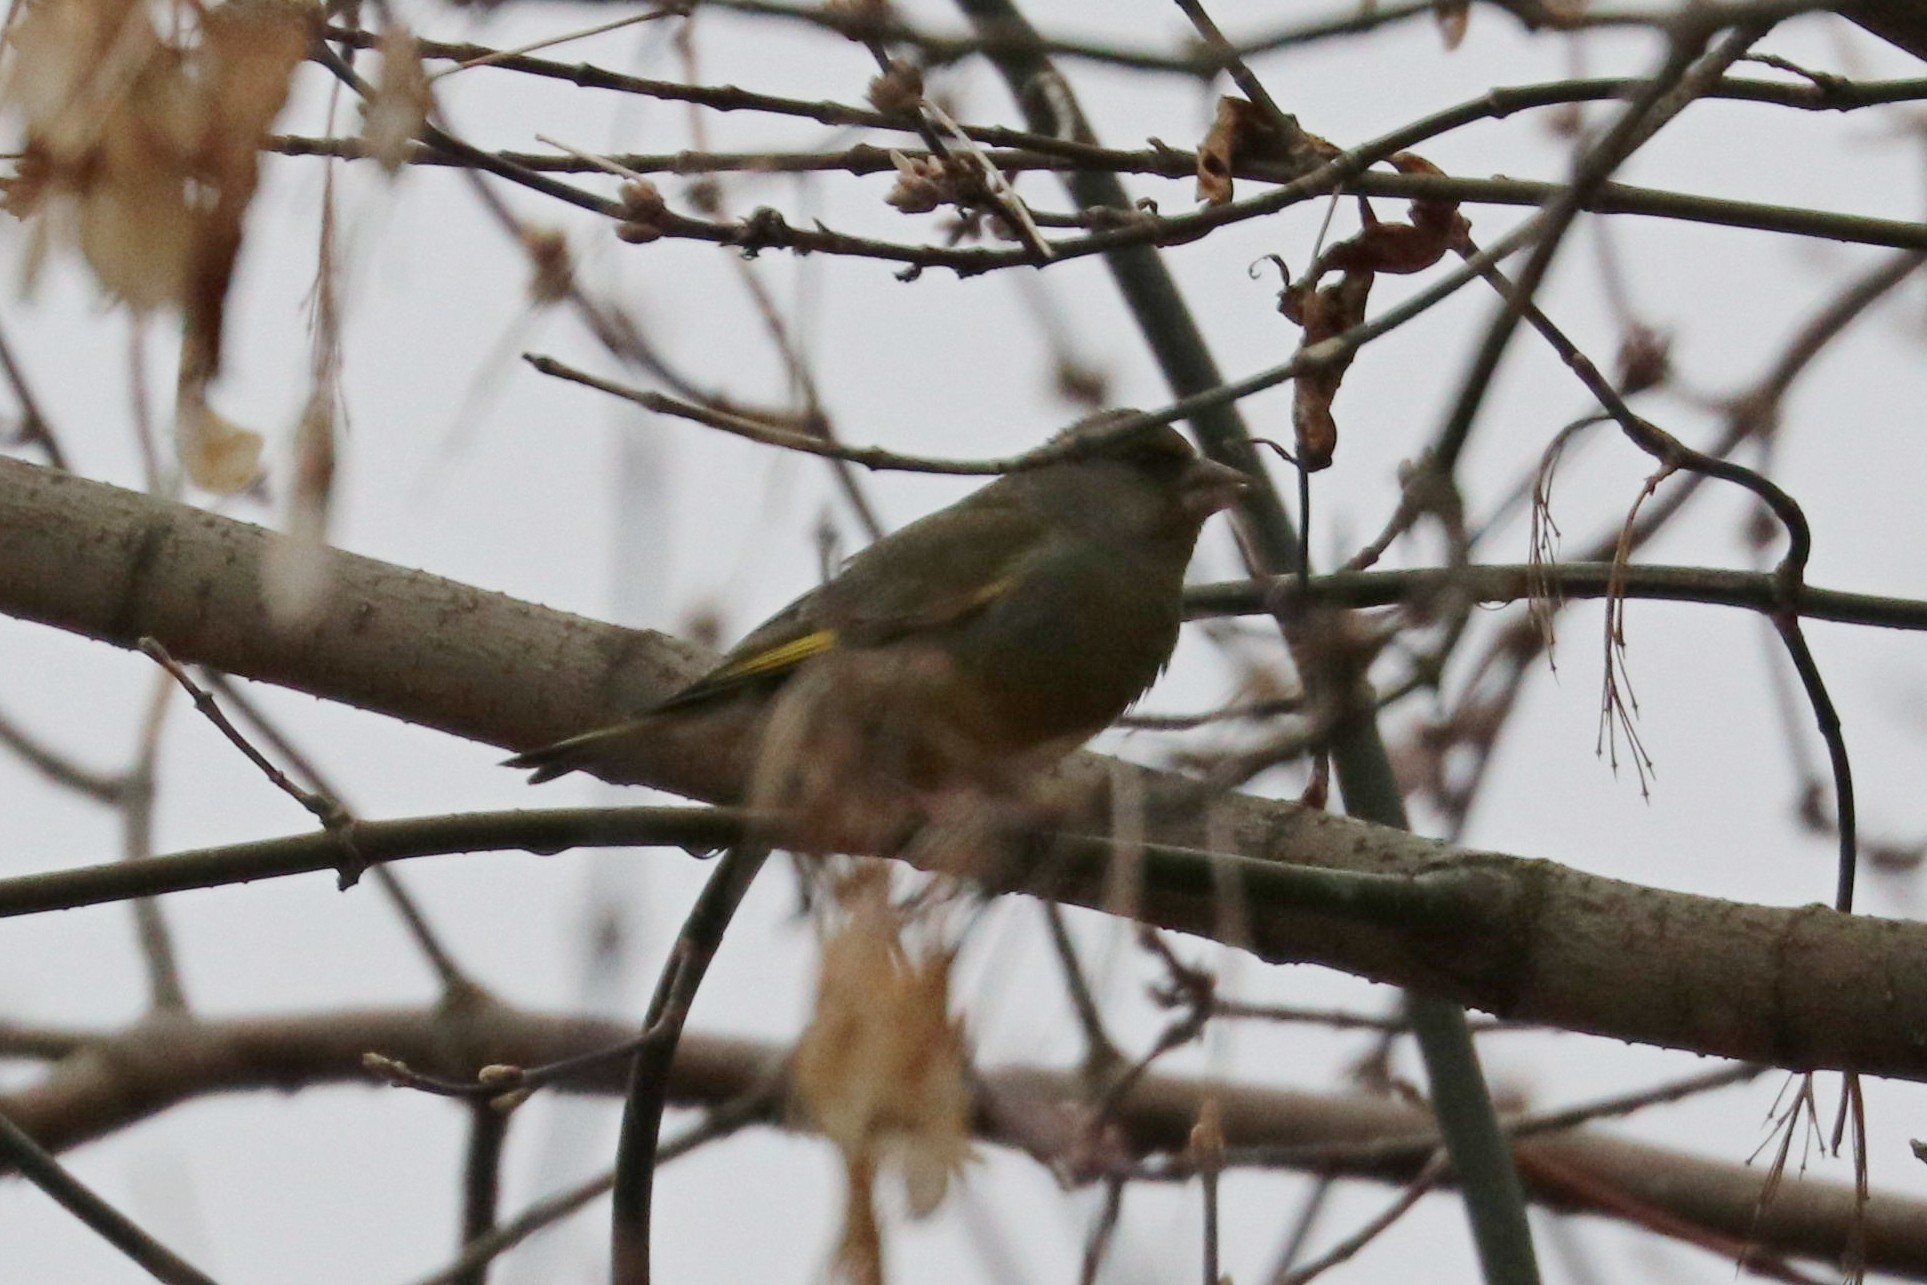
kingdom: Plantae
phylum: Tracheophyta
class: Liliopsida
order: Poales
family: Poaceae
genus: Chloris
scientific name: Chloris chloris
